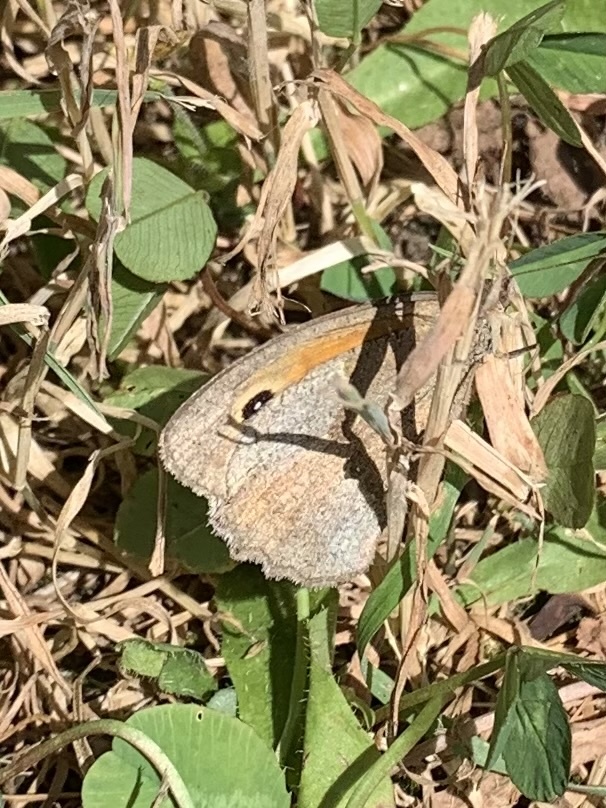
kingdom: Animalia
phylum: Arthropoda
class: Insecta
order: Lepidoptera
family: Nymphalidae
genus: Maniola
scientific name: Maniola jurtina
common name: Meadow brown
